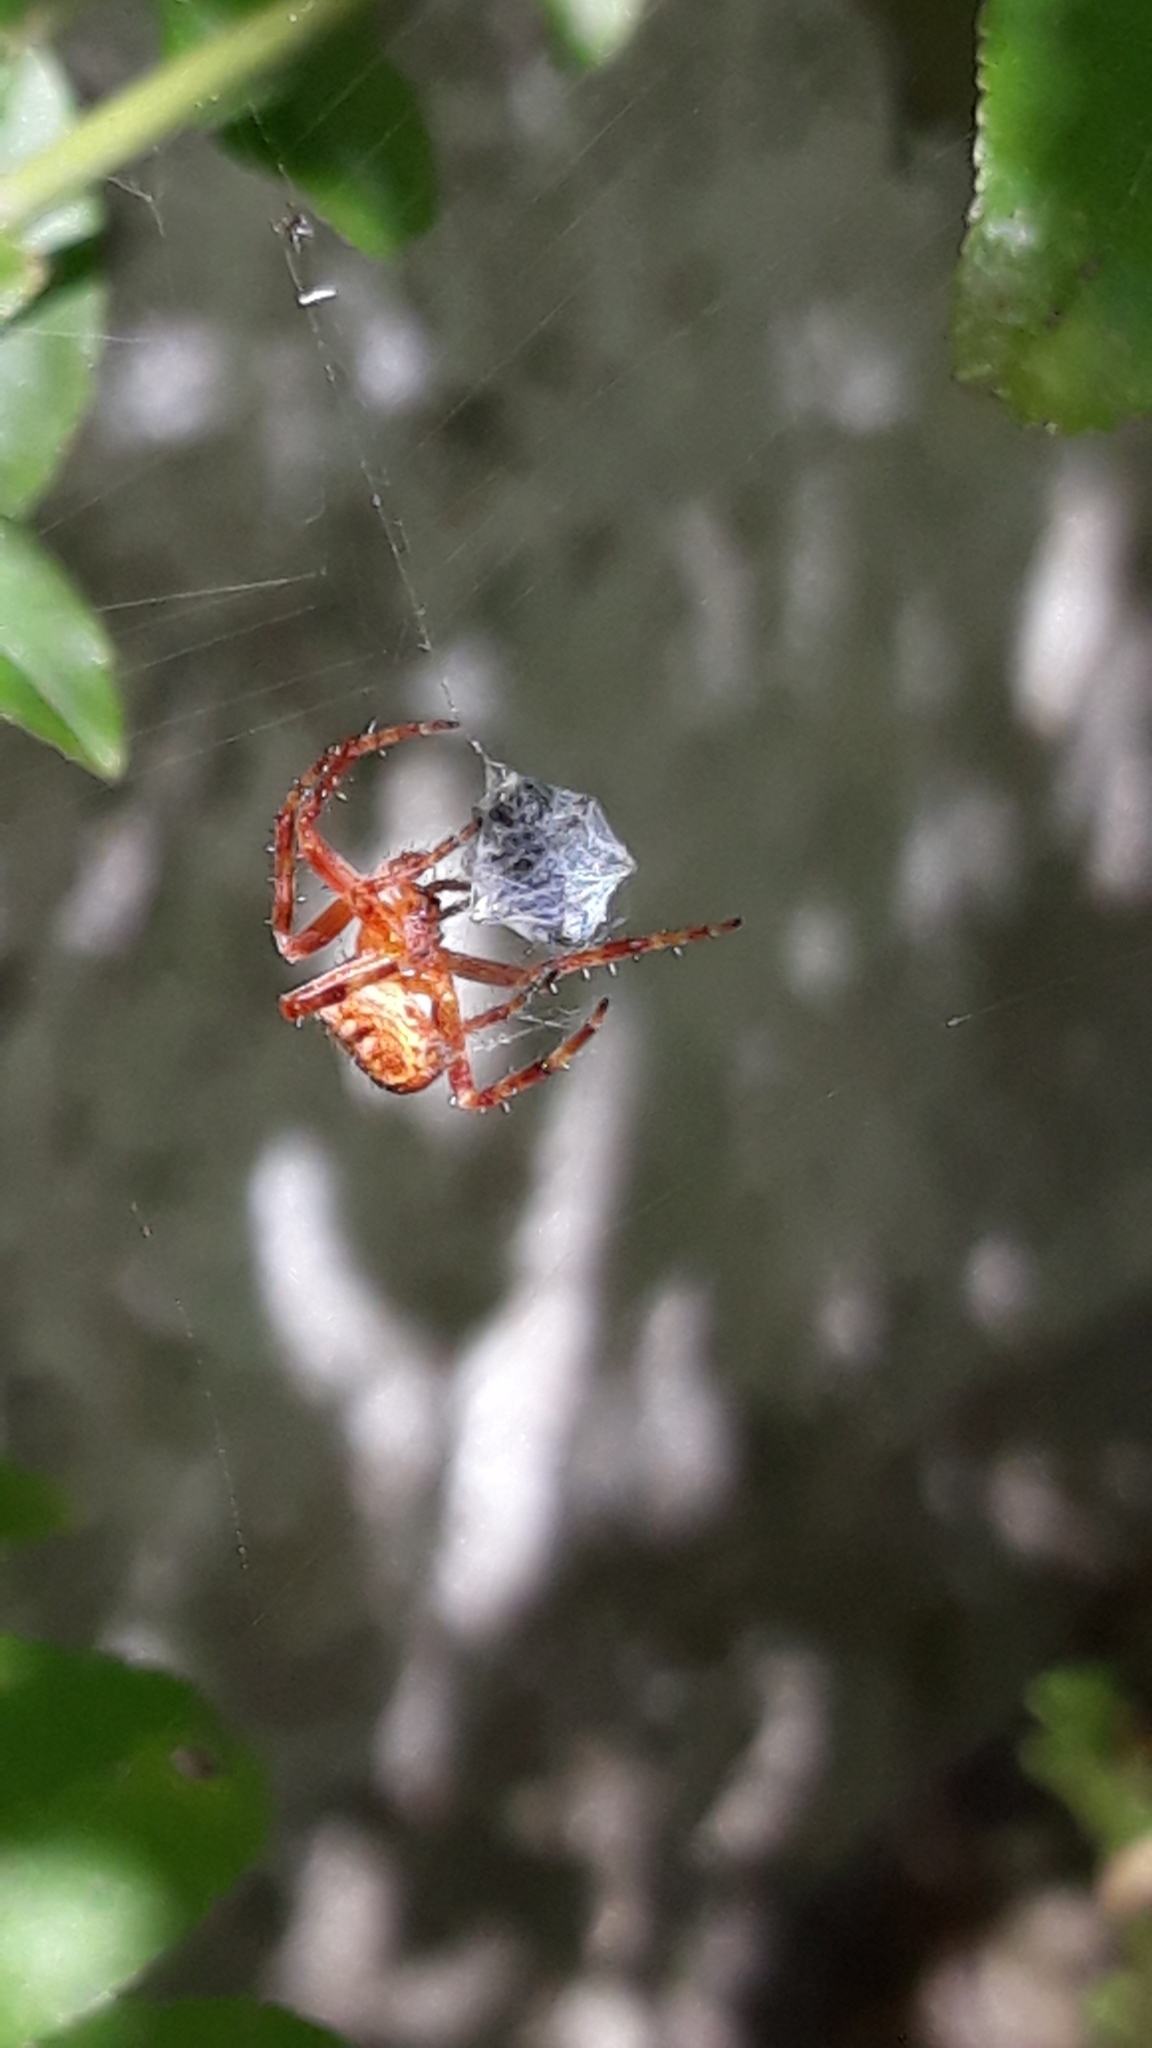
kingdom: Animalia
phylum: Arthropoda
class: Arachnida
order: Araneae
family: Araneidae
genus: Araneus
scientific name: Araneus diadematus
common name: Cross orbweaver
